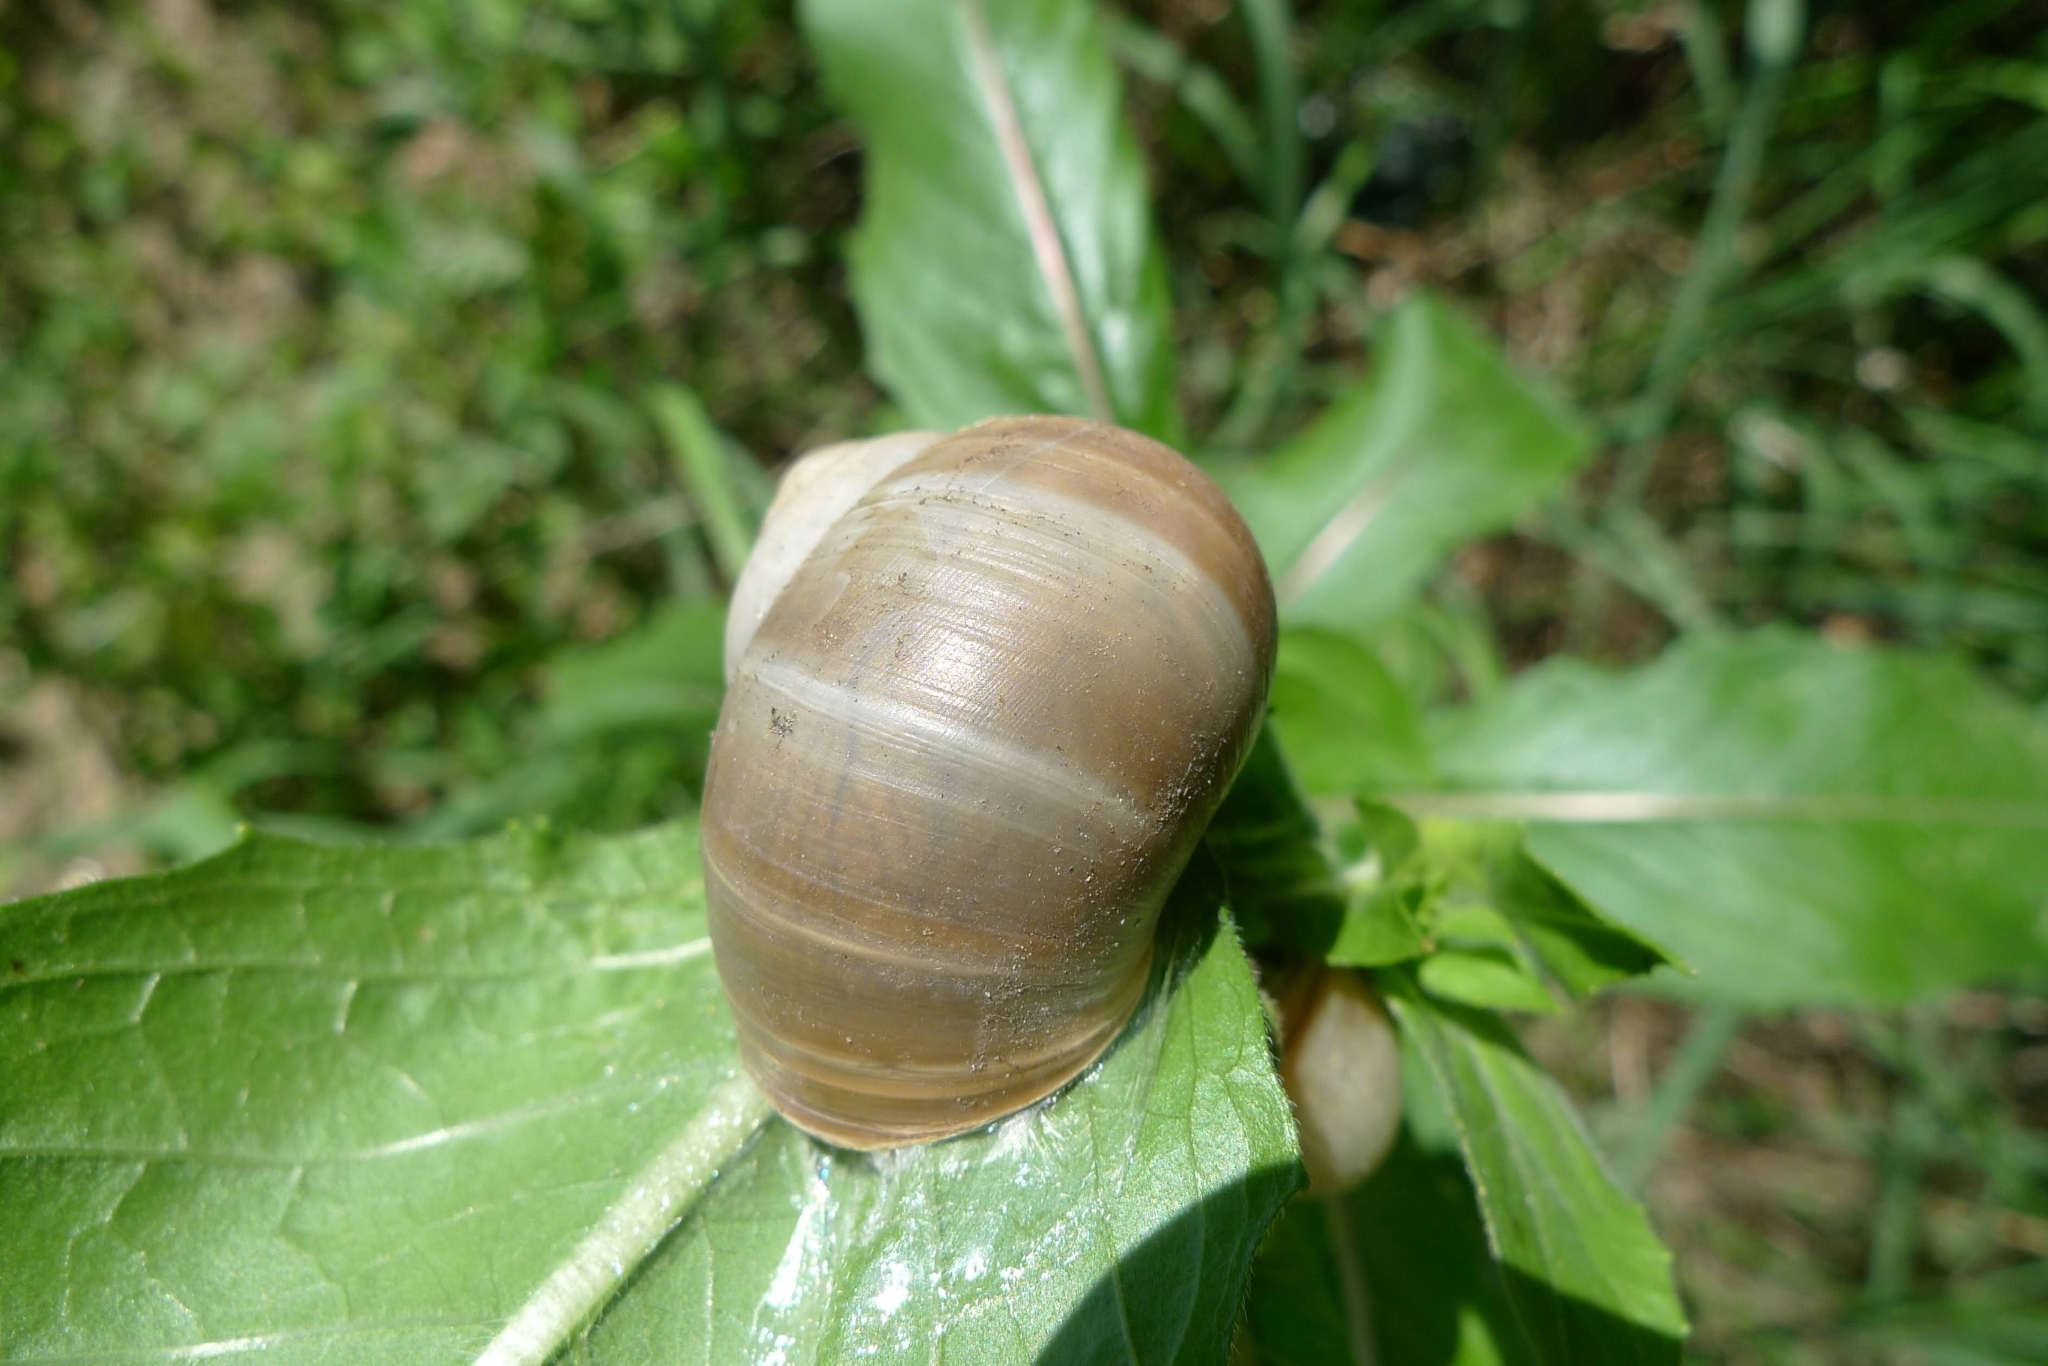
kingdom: Animalia
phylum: Mollusca
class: Gastropoda
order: Stylommatophora
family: Helicidae
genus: Helix
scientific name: Helix lutescens
